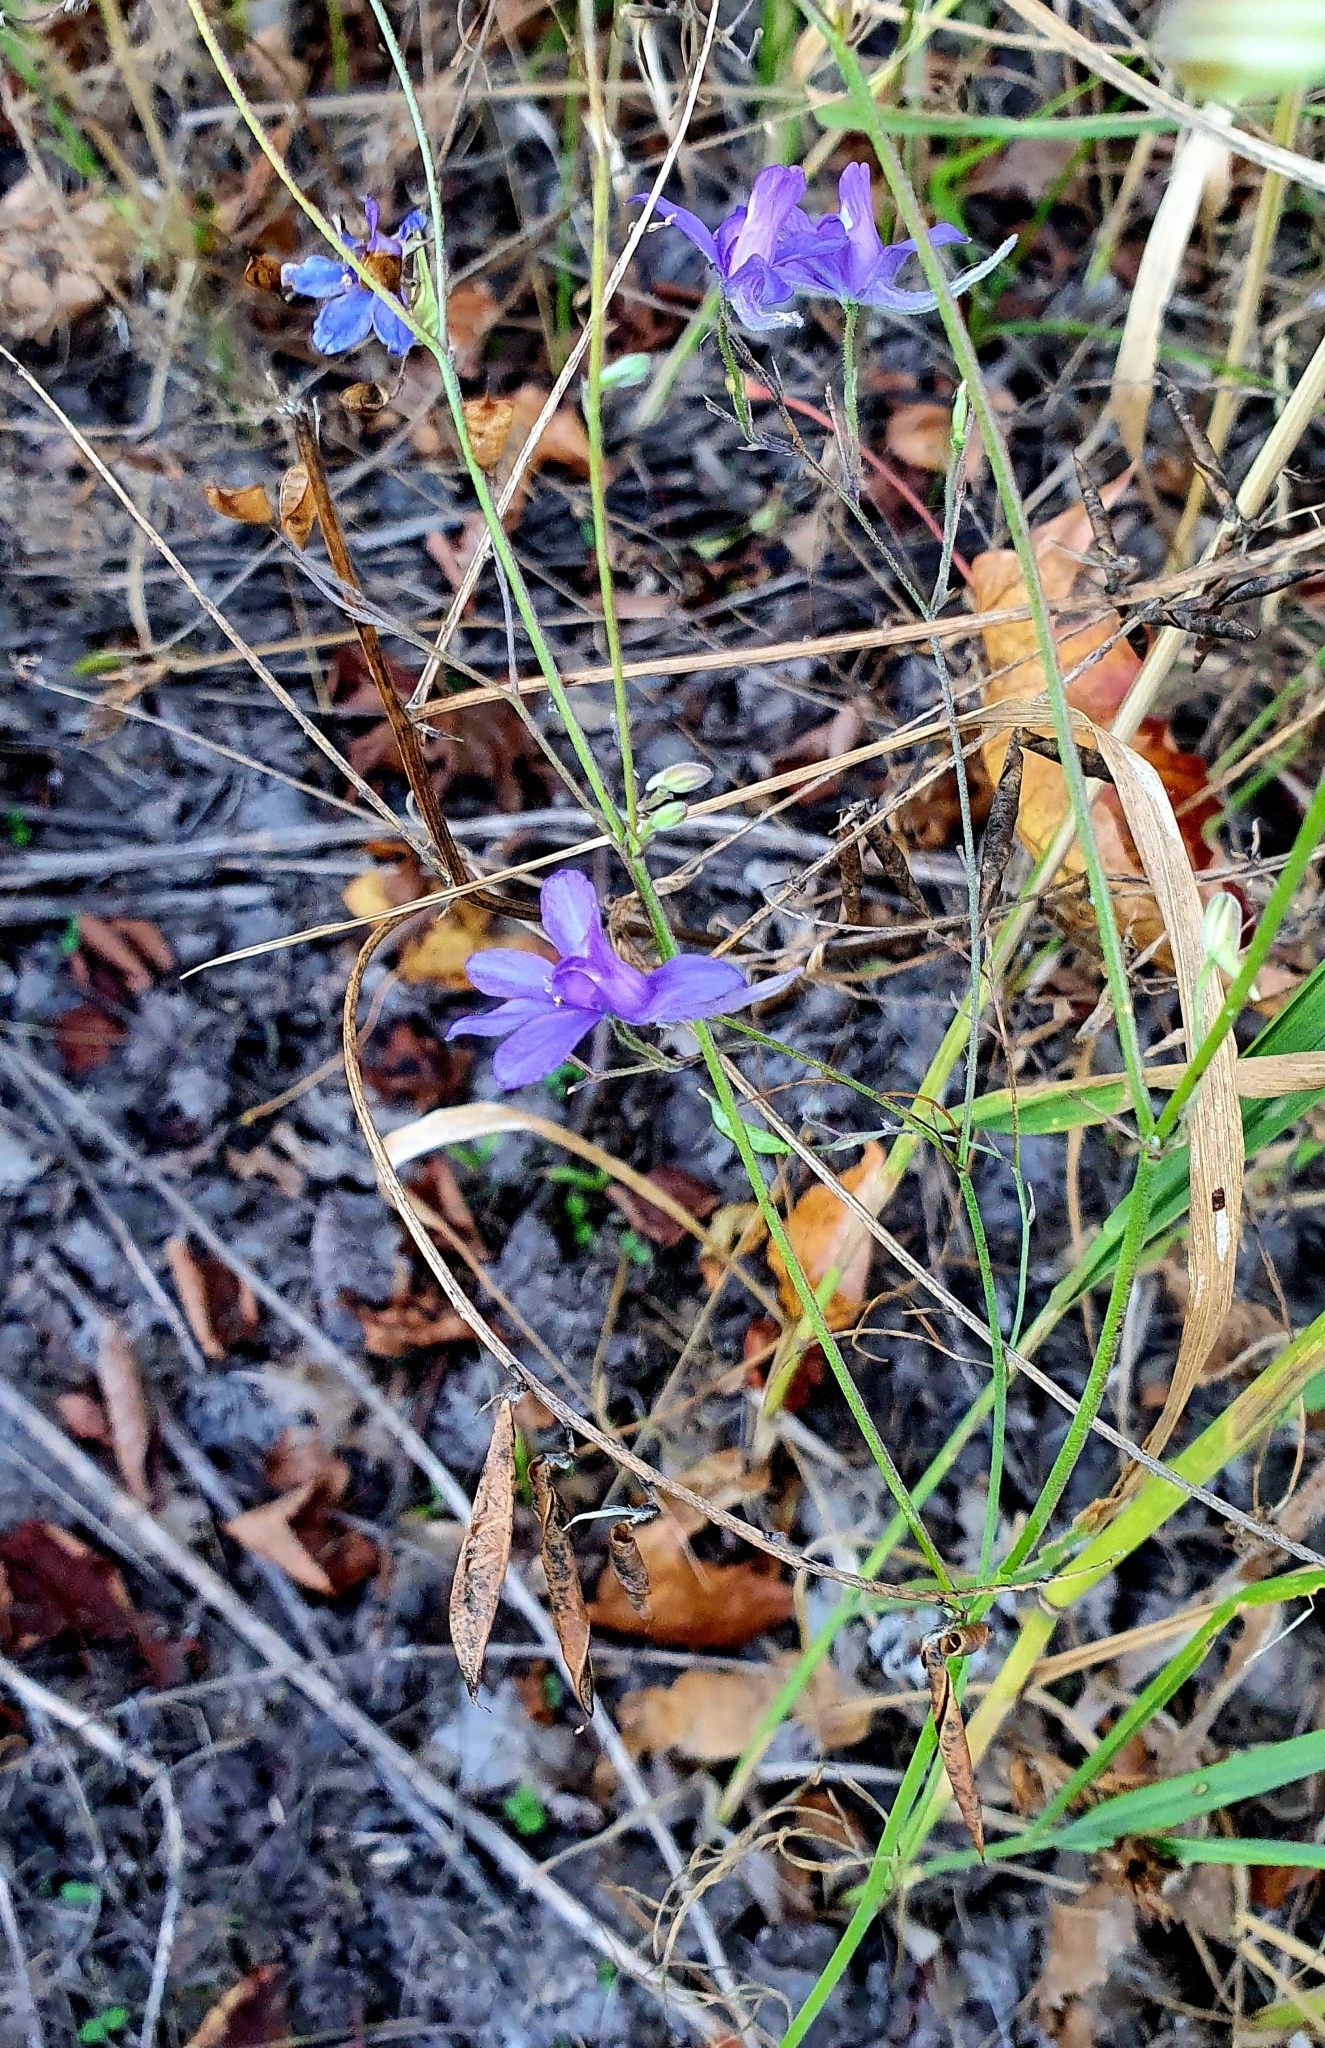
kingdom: Plantae
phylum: Tracheophyta
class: Magnoliopsida
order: Ranunculales
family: Ranunculaceae
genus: Delphinium
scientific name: Delphinium consolida
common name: Branching larkspur
